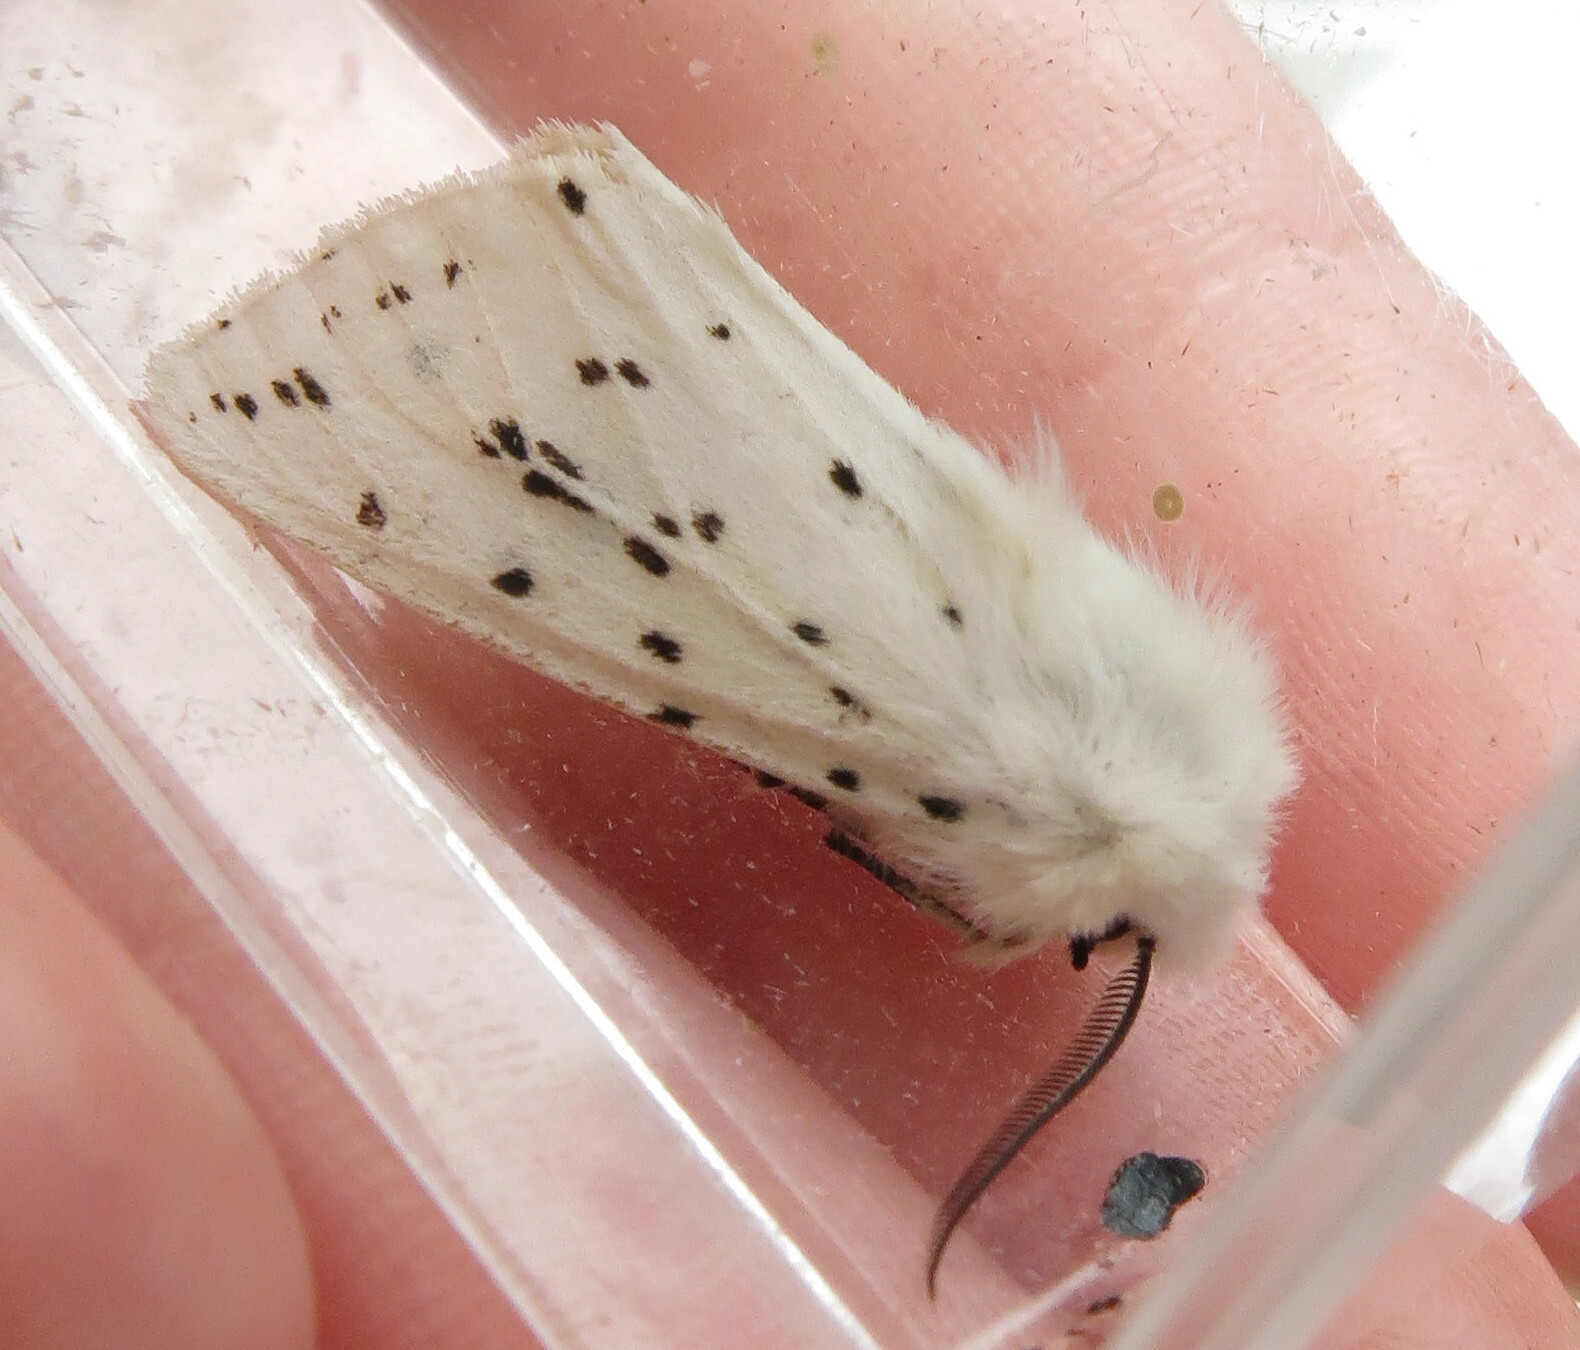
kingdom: Animalia
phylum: Arthropoda
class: Insecta
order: Lepidoptera
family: Erebidae
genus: Spilosoma
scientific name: Spilosoma lubricipeda
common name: White ermine
